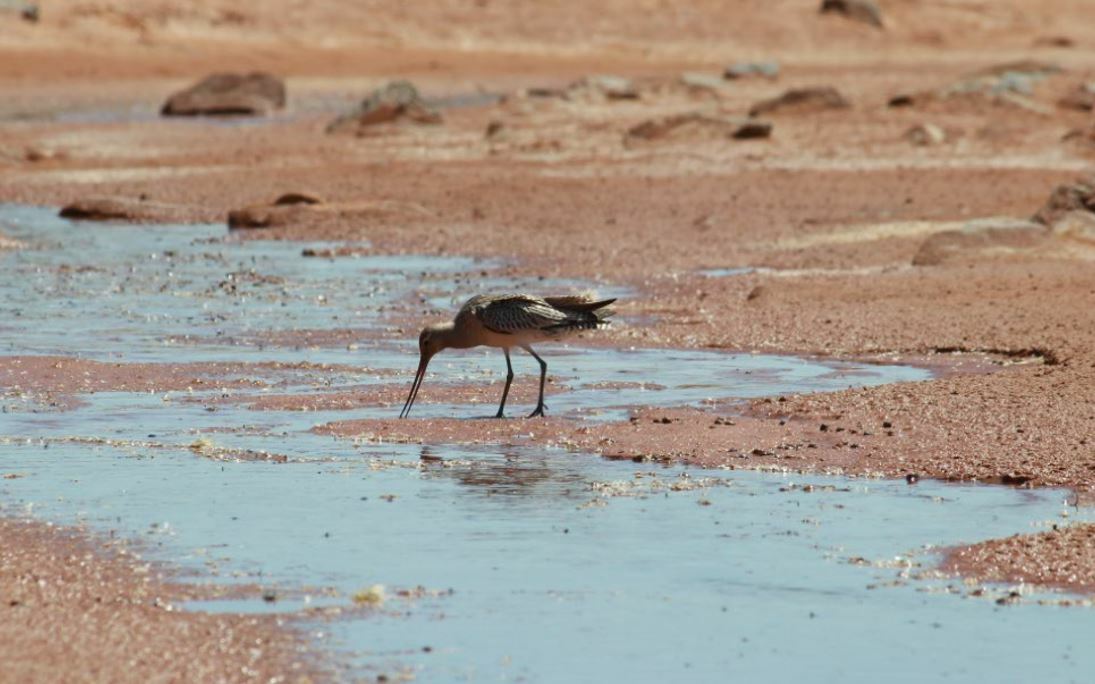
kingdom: Animalia
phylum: Chordata
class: Aves
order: Charadriiformes
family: Scolopacidae
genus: Limosa
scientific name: Limosa lapponica
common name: Bar-tailed godwit
